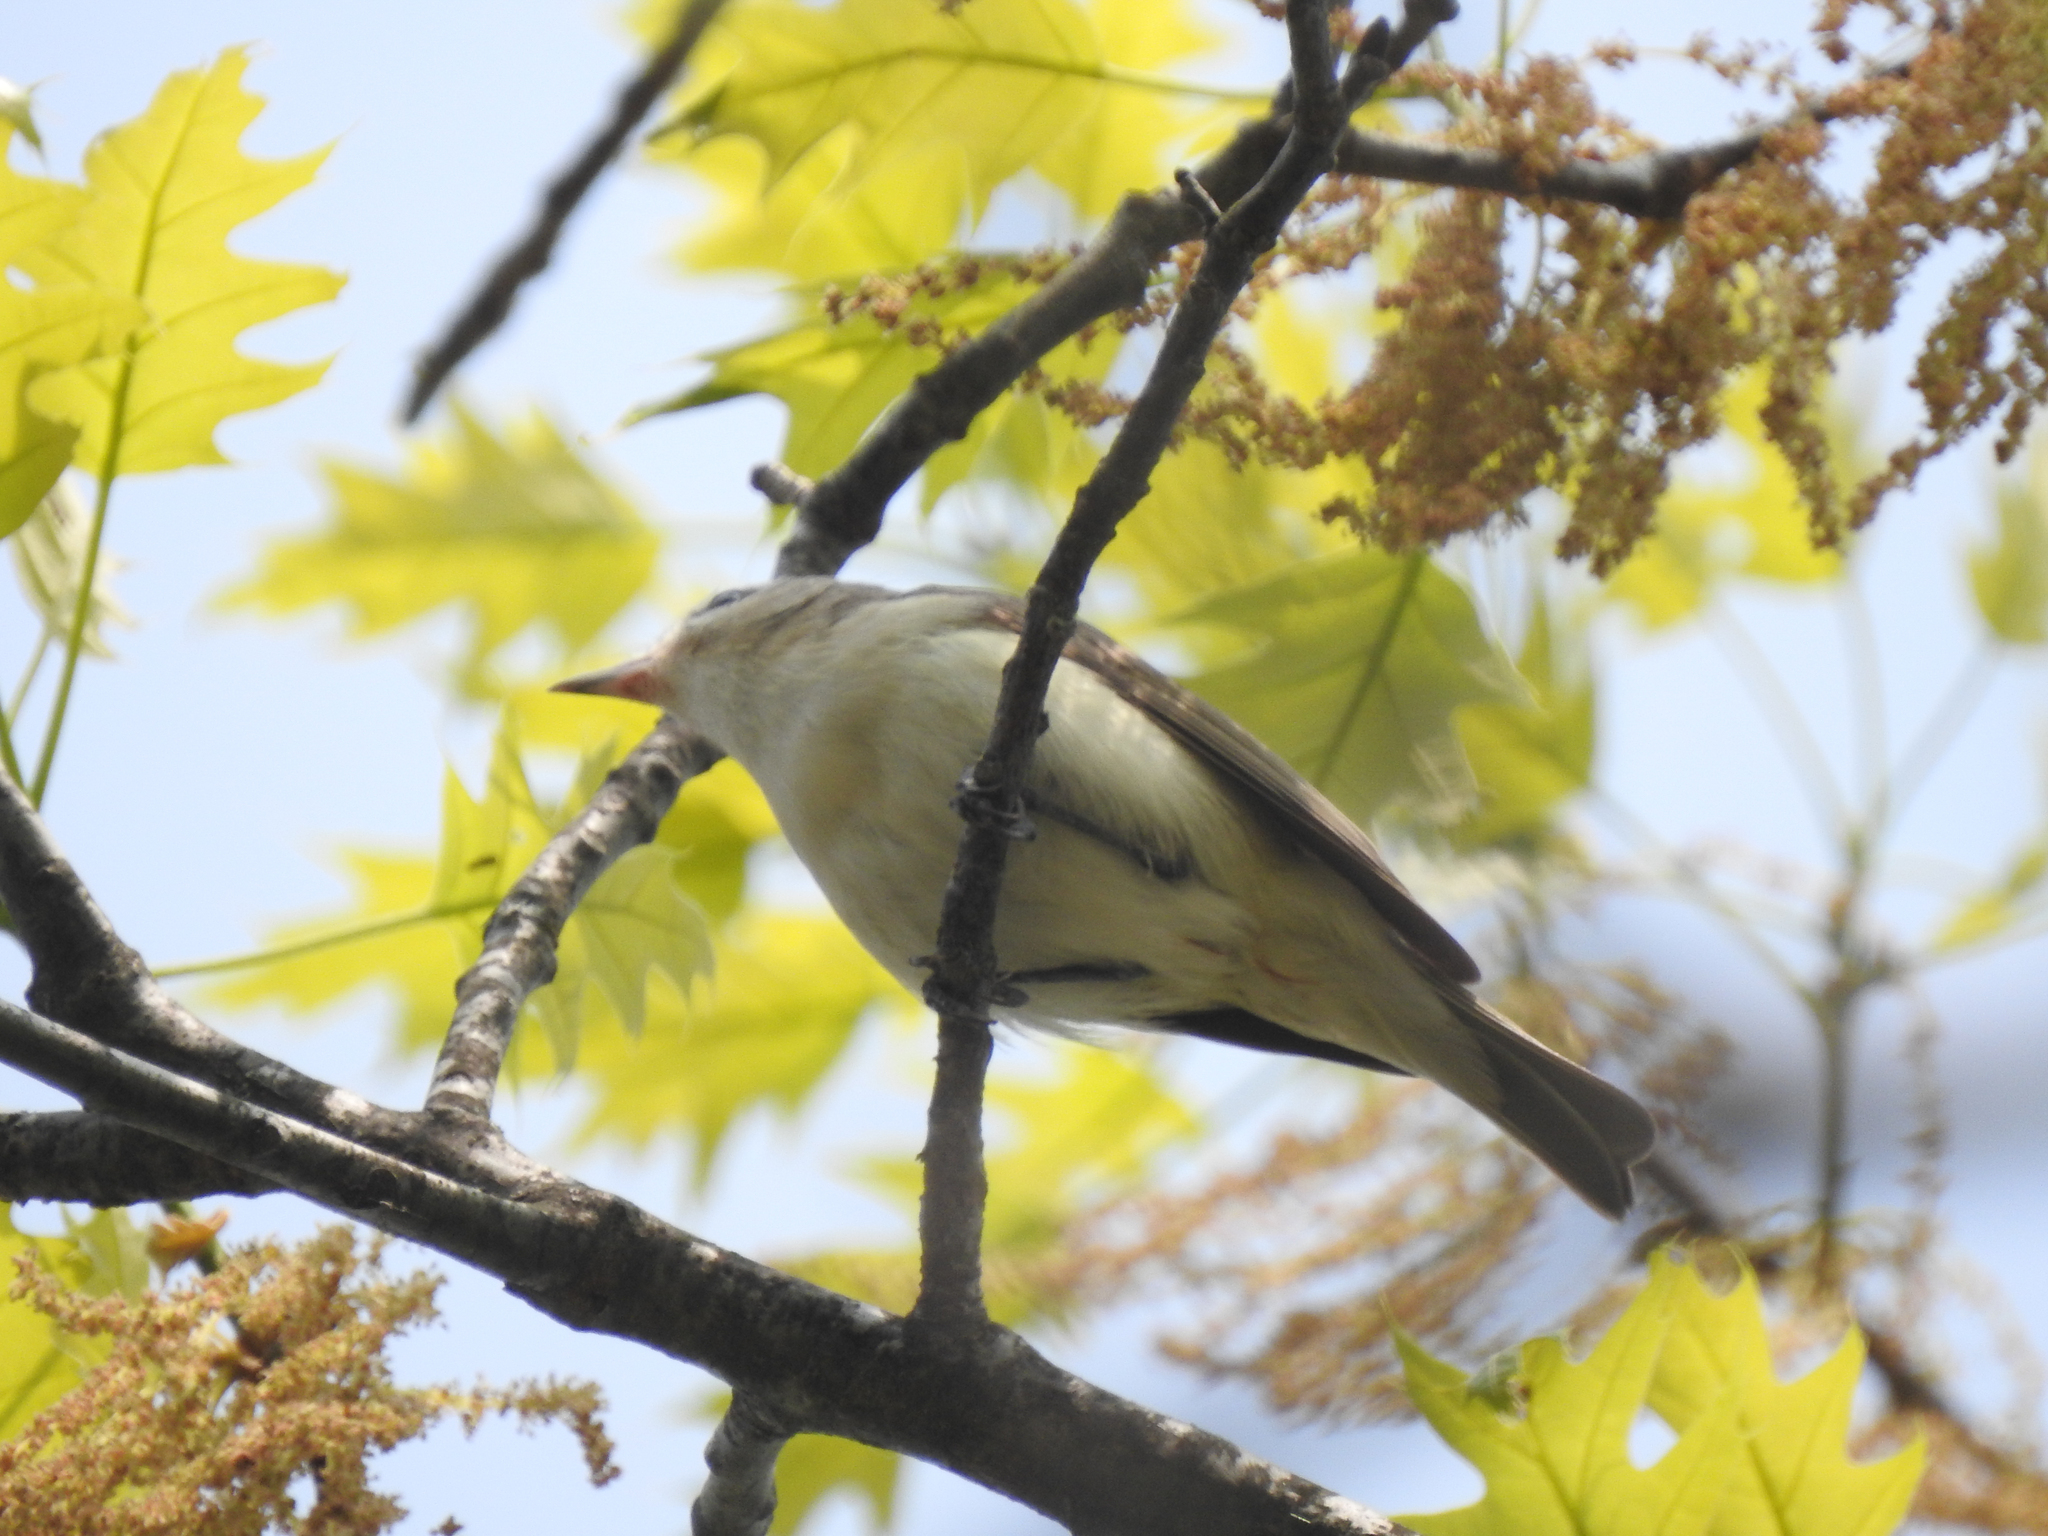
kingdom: Animalia
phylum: Chordata
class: Aves
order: Passeriformes
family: Vireonidae
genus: Vireo
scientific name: Vireo gilvus
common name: Warbling vireo
